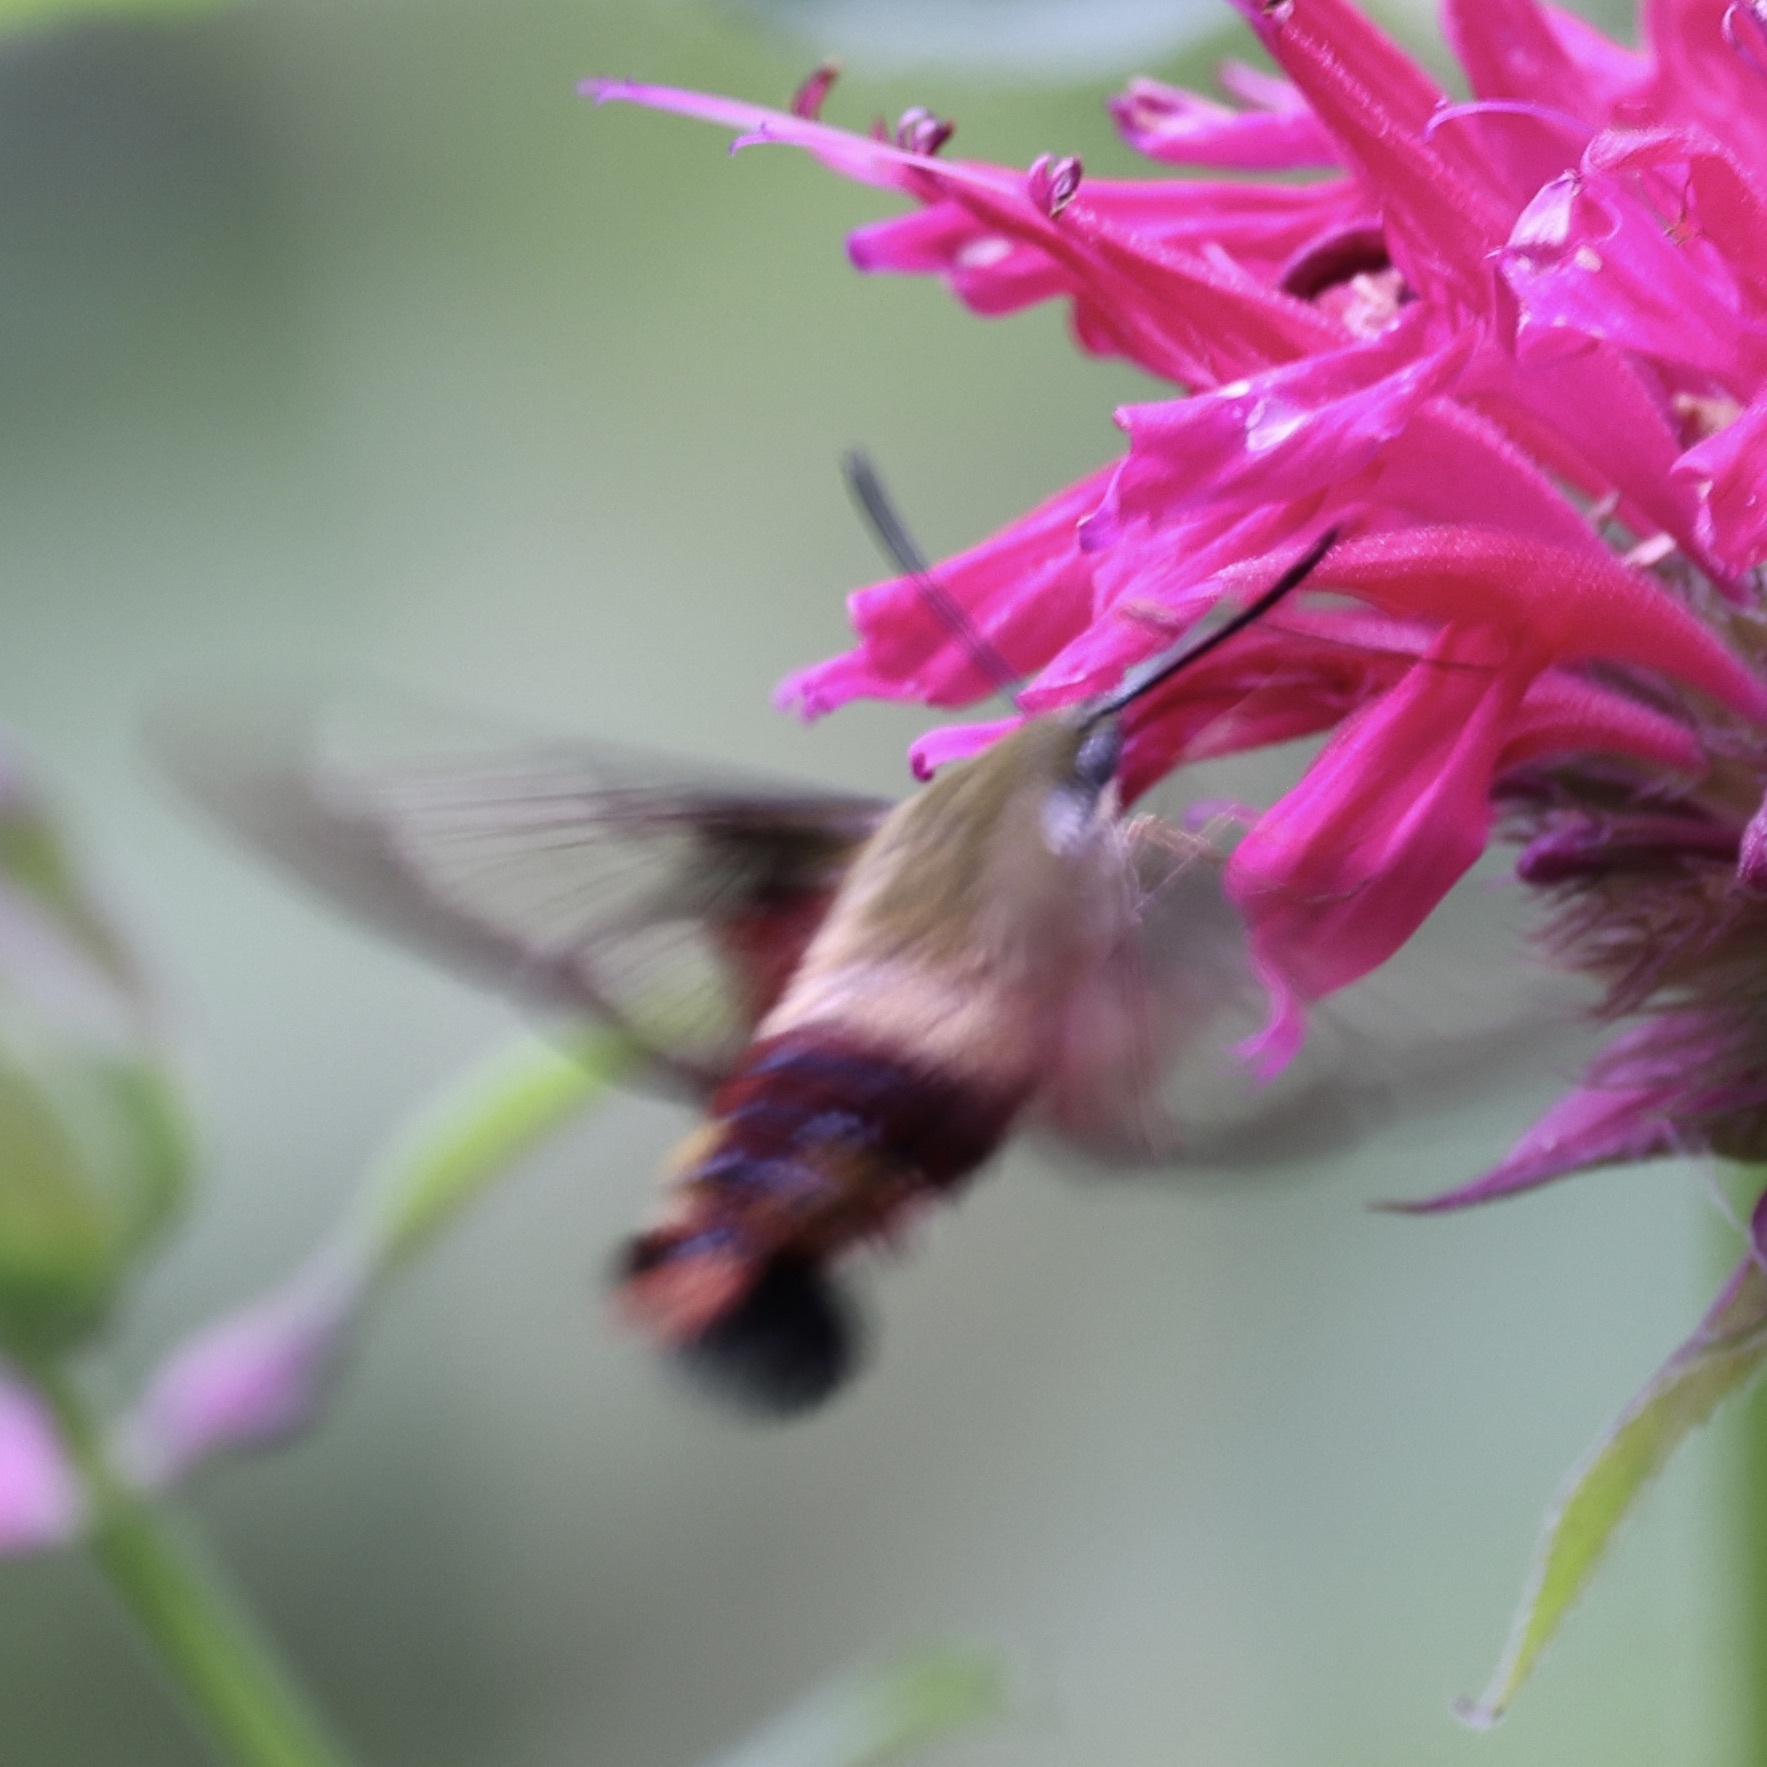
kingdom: Animalia
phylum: Arthropoda
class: Insecta
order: Lepidoptera
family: Sphingidae
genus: Hemaris
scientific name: Hemaris thysbe
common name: Common clear-wing
